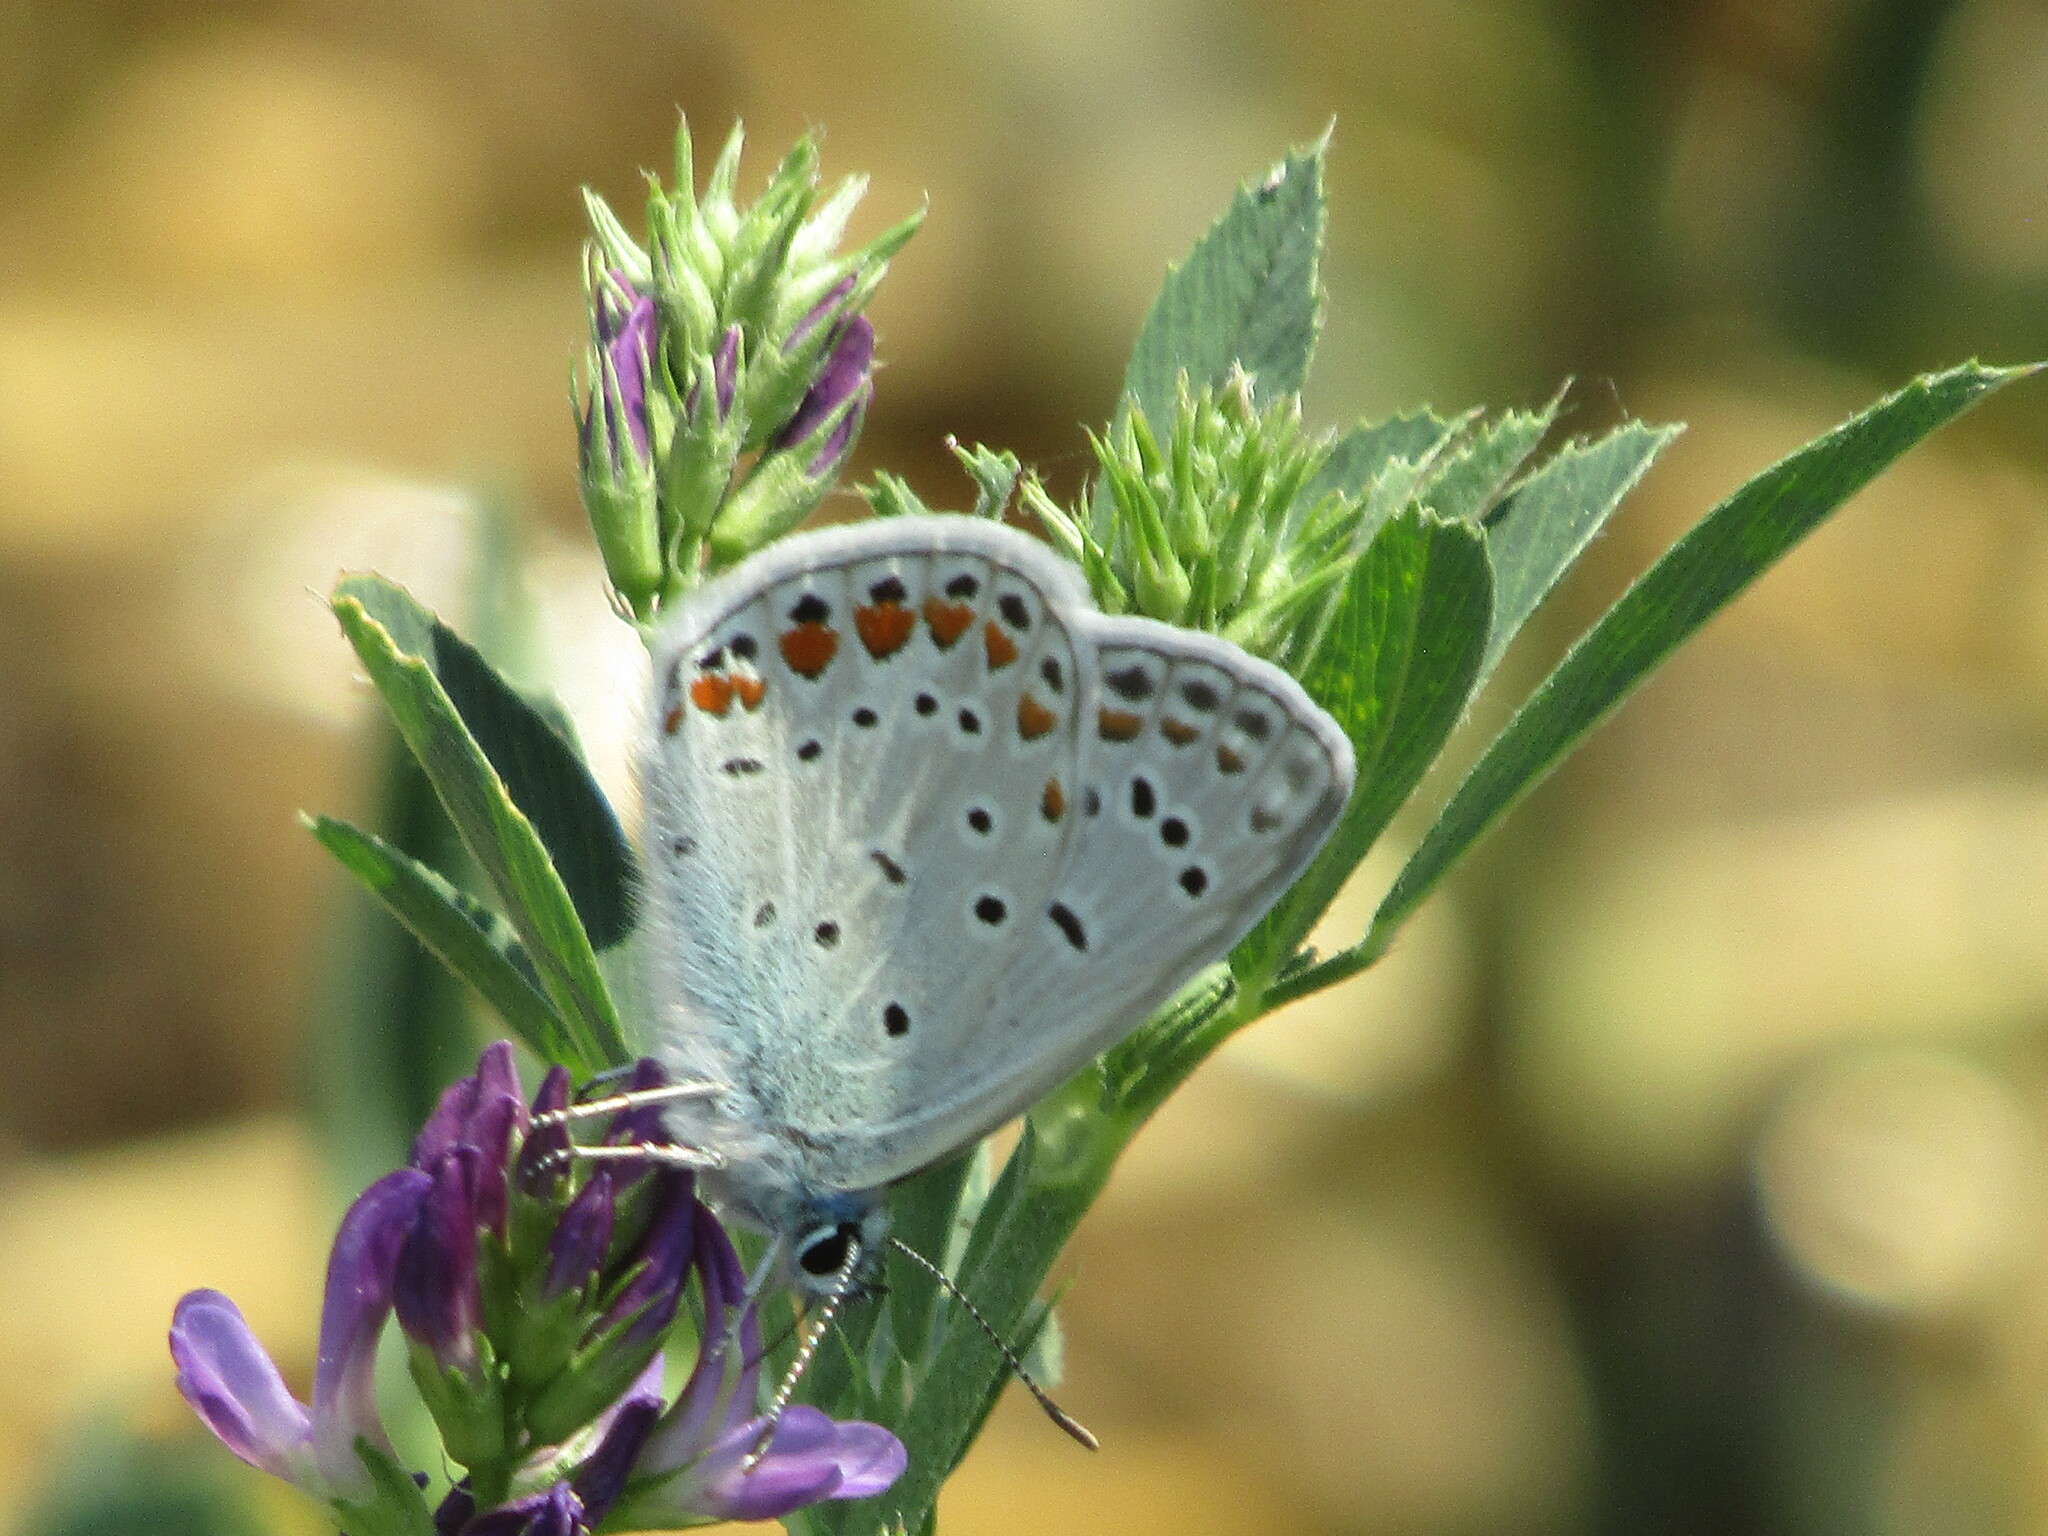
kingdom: Animalia
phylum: Arthropoda
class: Insecta
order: Lepidoptera
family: Lycaenidae
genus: Polyommatus
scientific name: Polyommatus icarus
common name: Common blue
